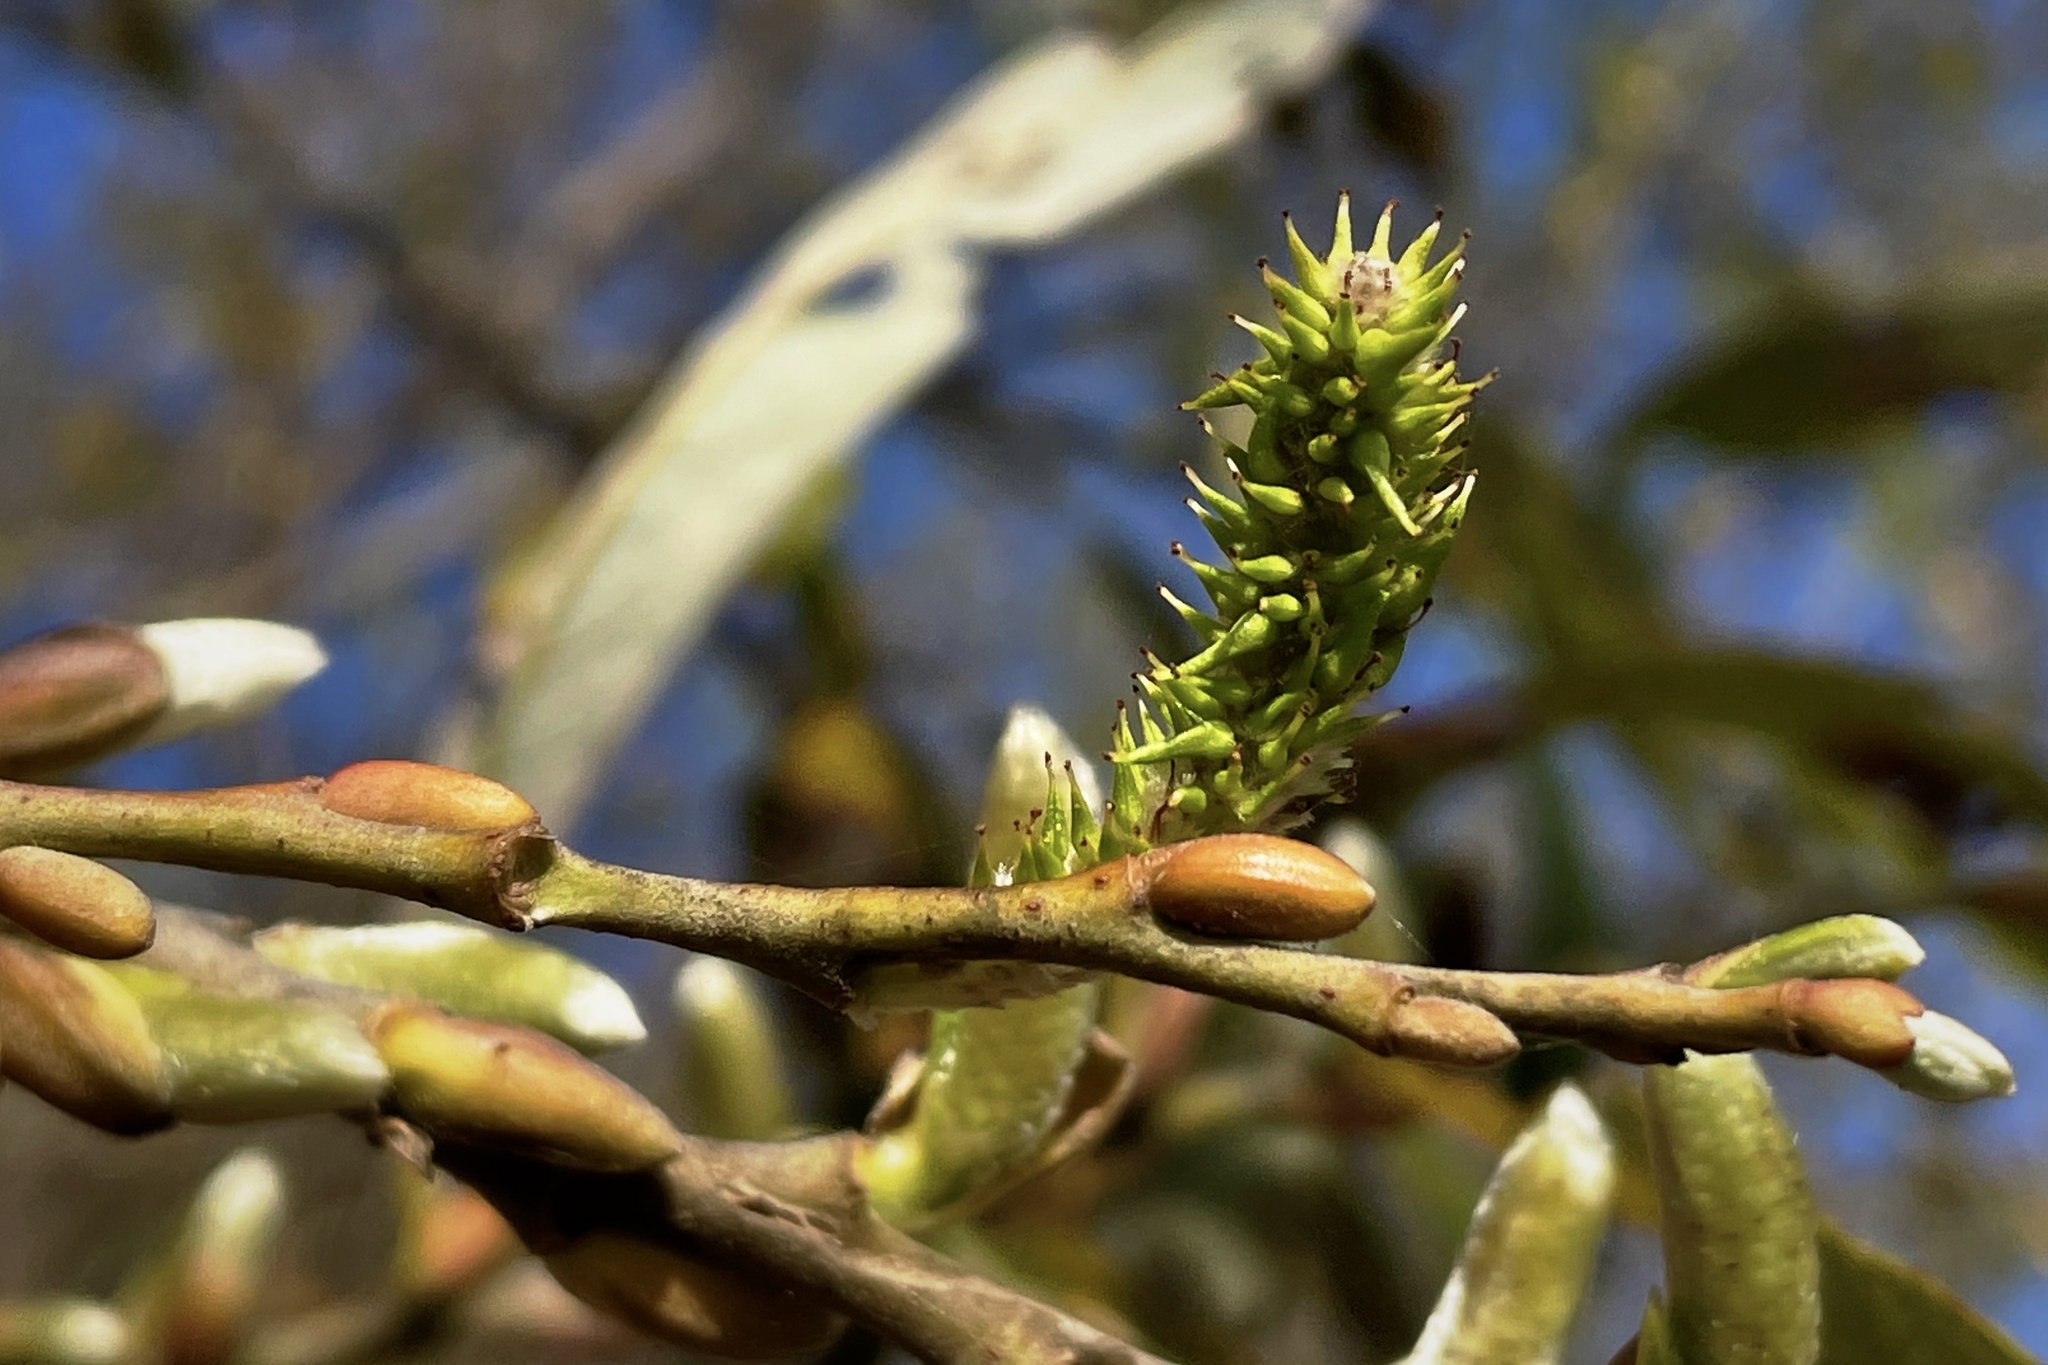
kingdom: Plantae
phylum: Tracheophyta
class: Magnoliopsida
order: Malpighiales
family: Salicaceae
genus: Salix
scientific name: Salix lasiolepis
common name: Arroyo willow
